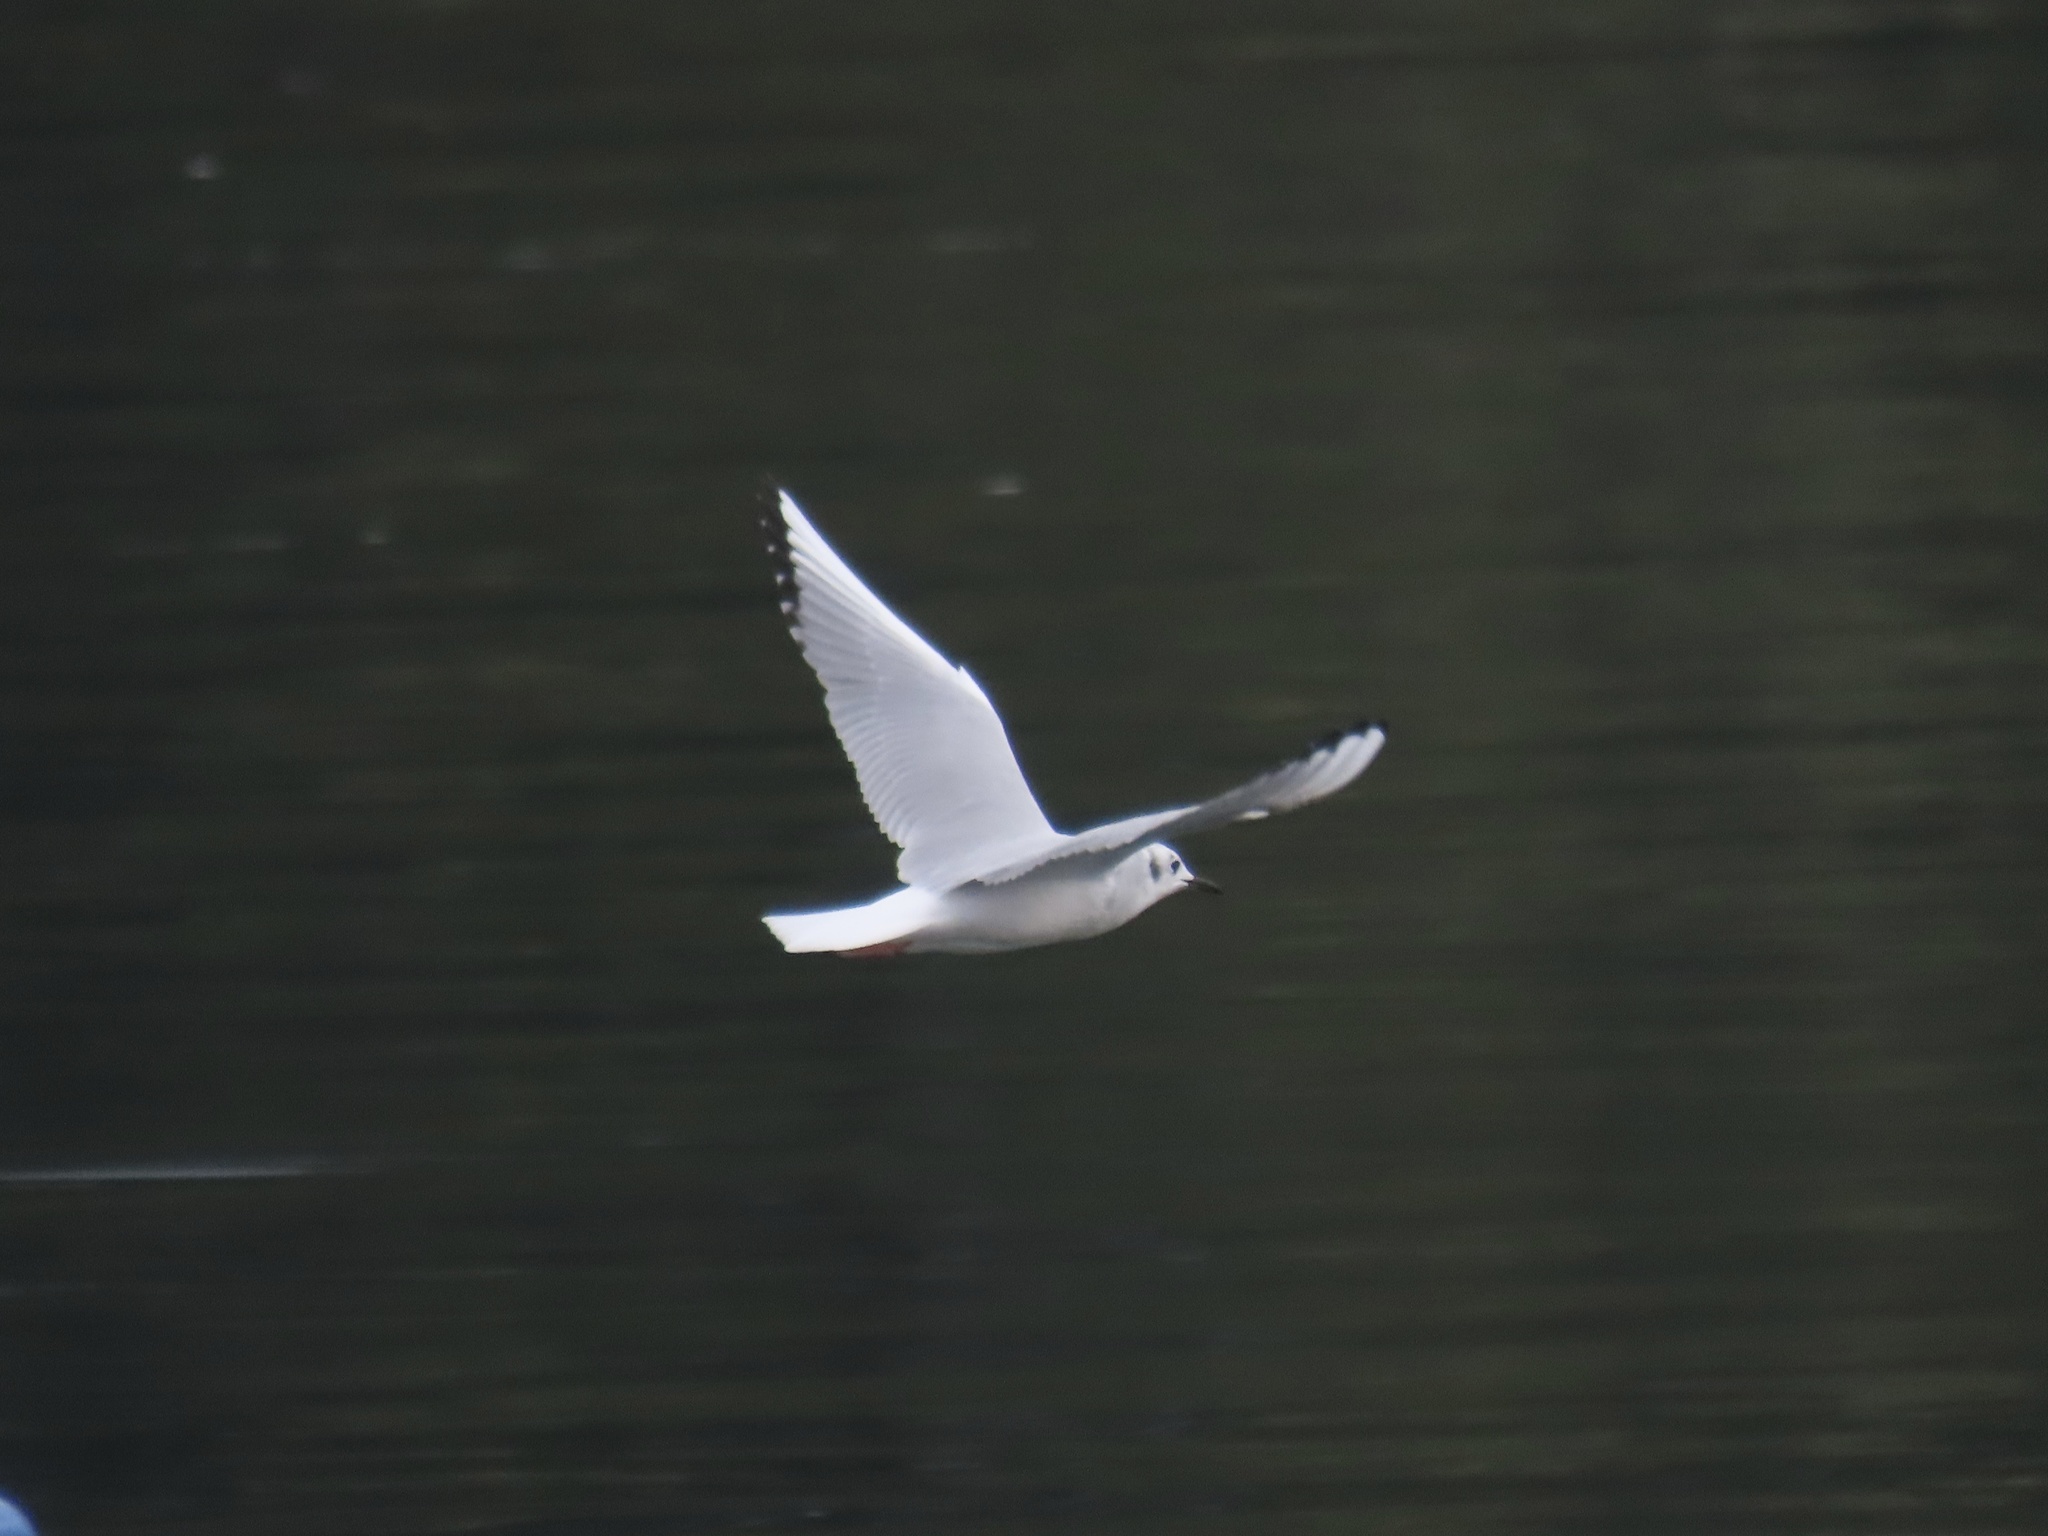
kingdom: Animalia
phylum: Chordata
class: Aves
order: Charadriiformes
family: Laridae
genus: Chroicocephalus
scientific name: Chroicocephalus philadelphia
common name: Bonaparte's gull
